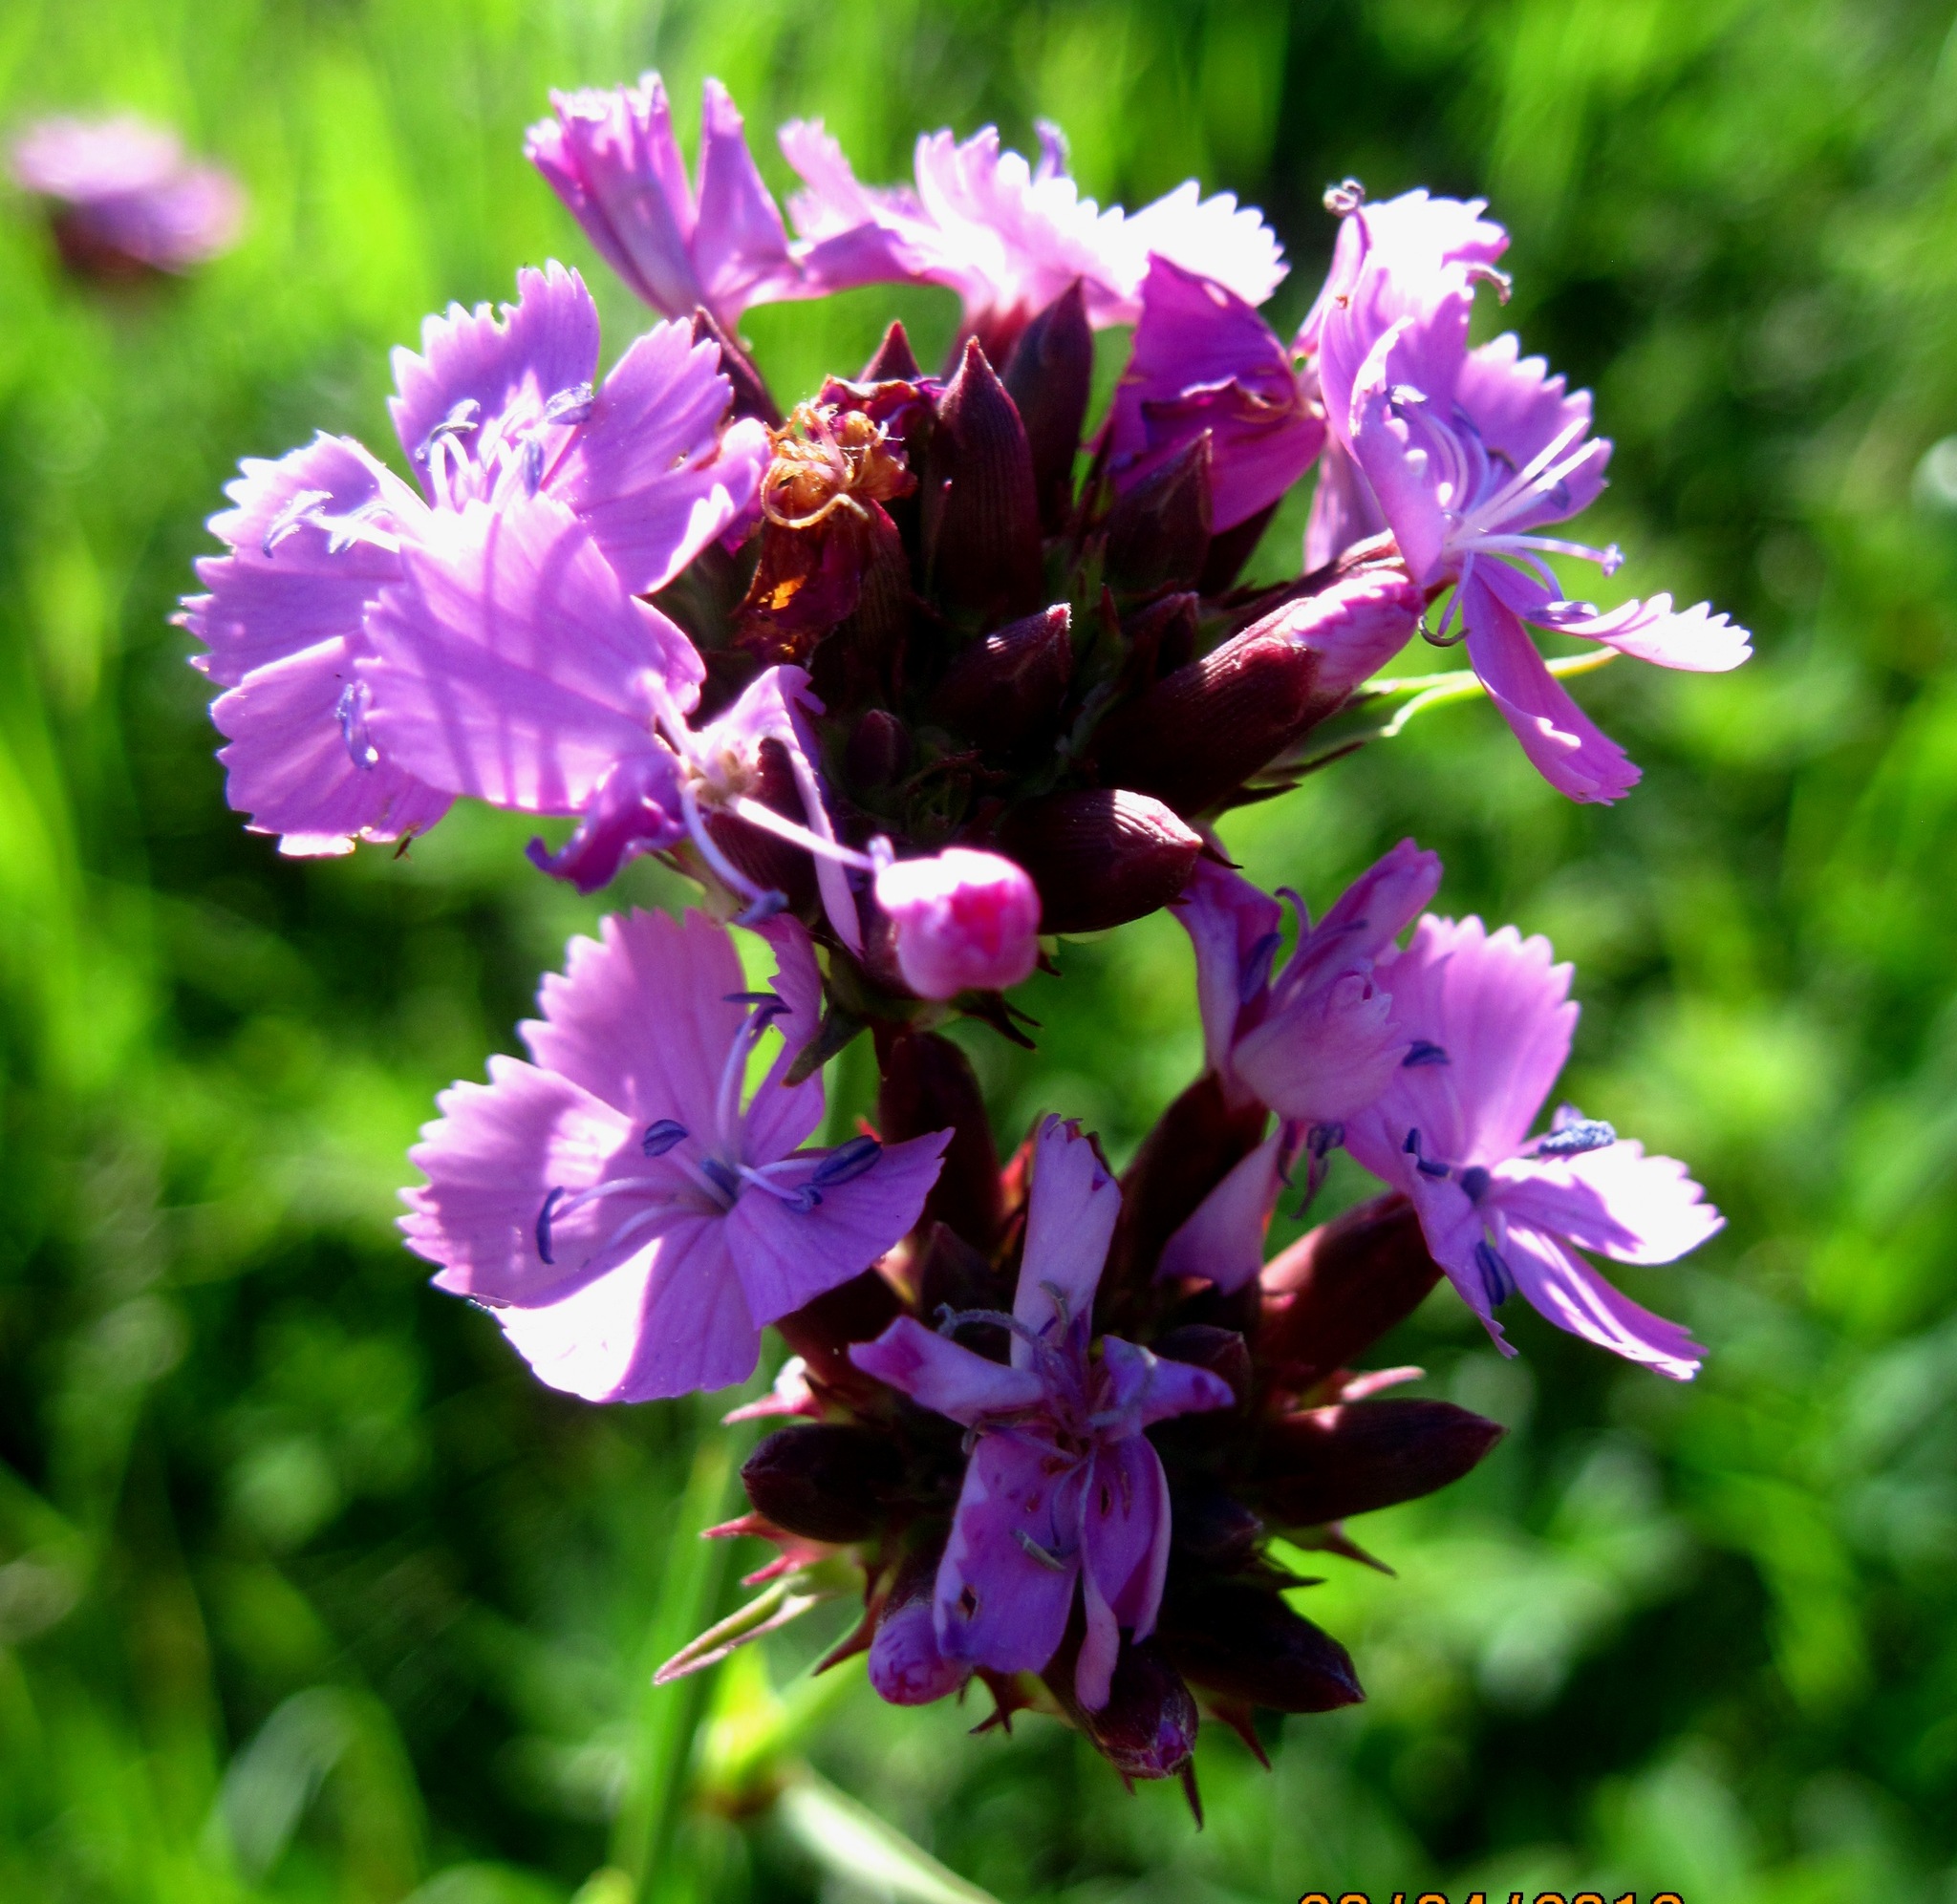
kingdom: Plantae
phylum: Tracheophyta
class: Magnoliopsida
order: Caryophyllales
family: Caryophyllaceae
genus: Dianthus
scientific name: Dianthus capitatus
